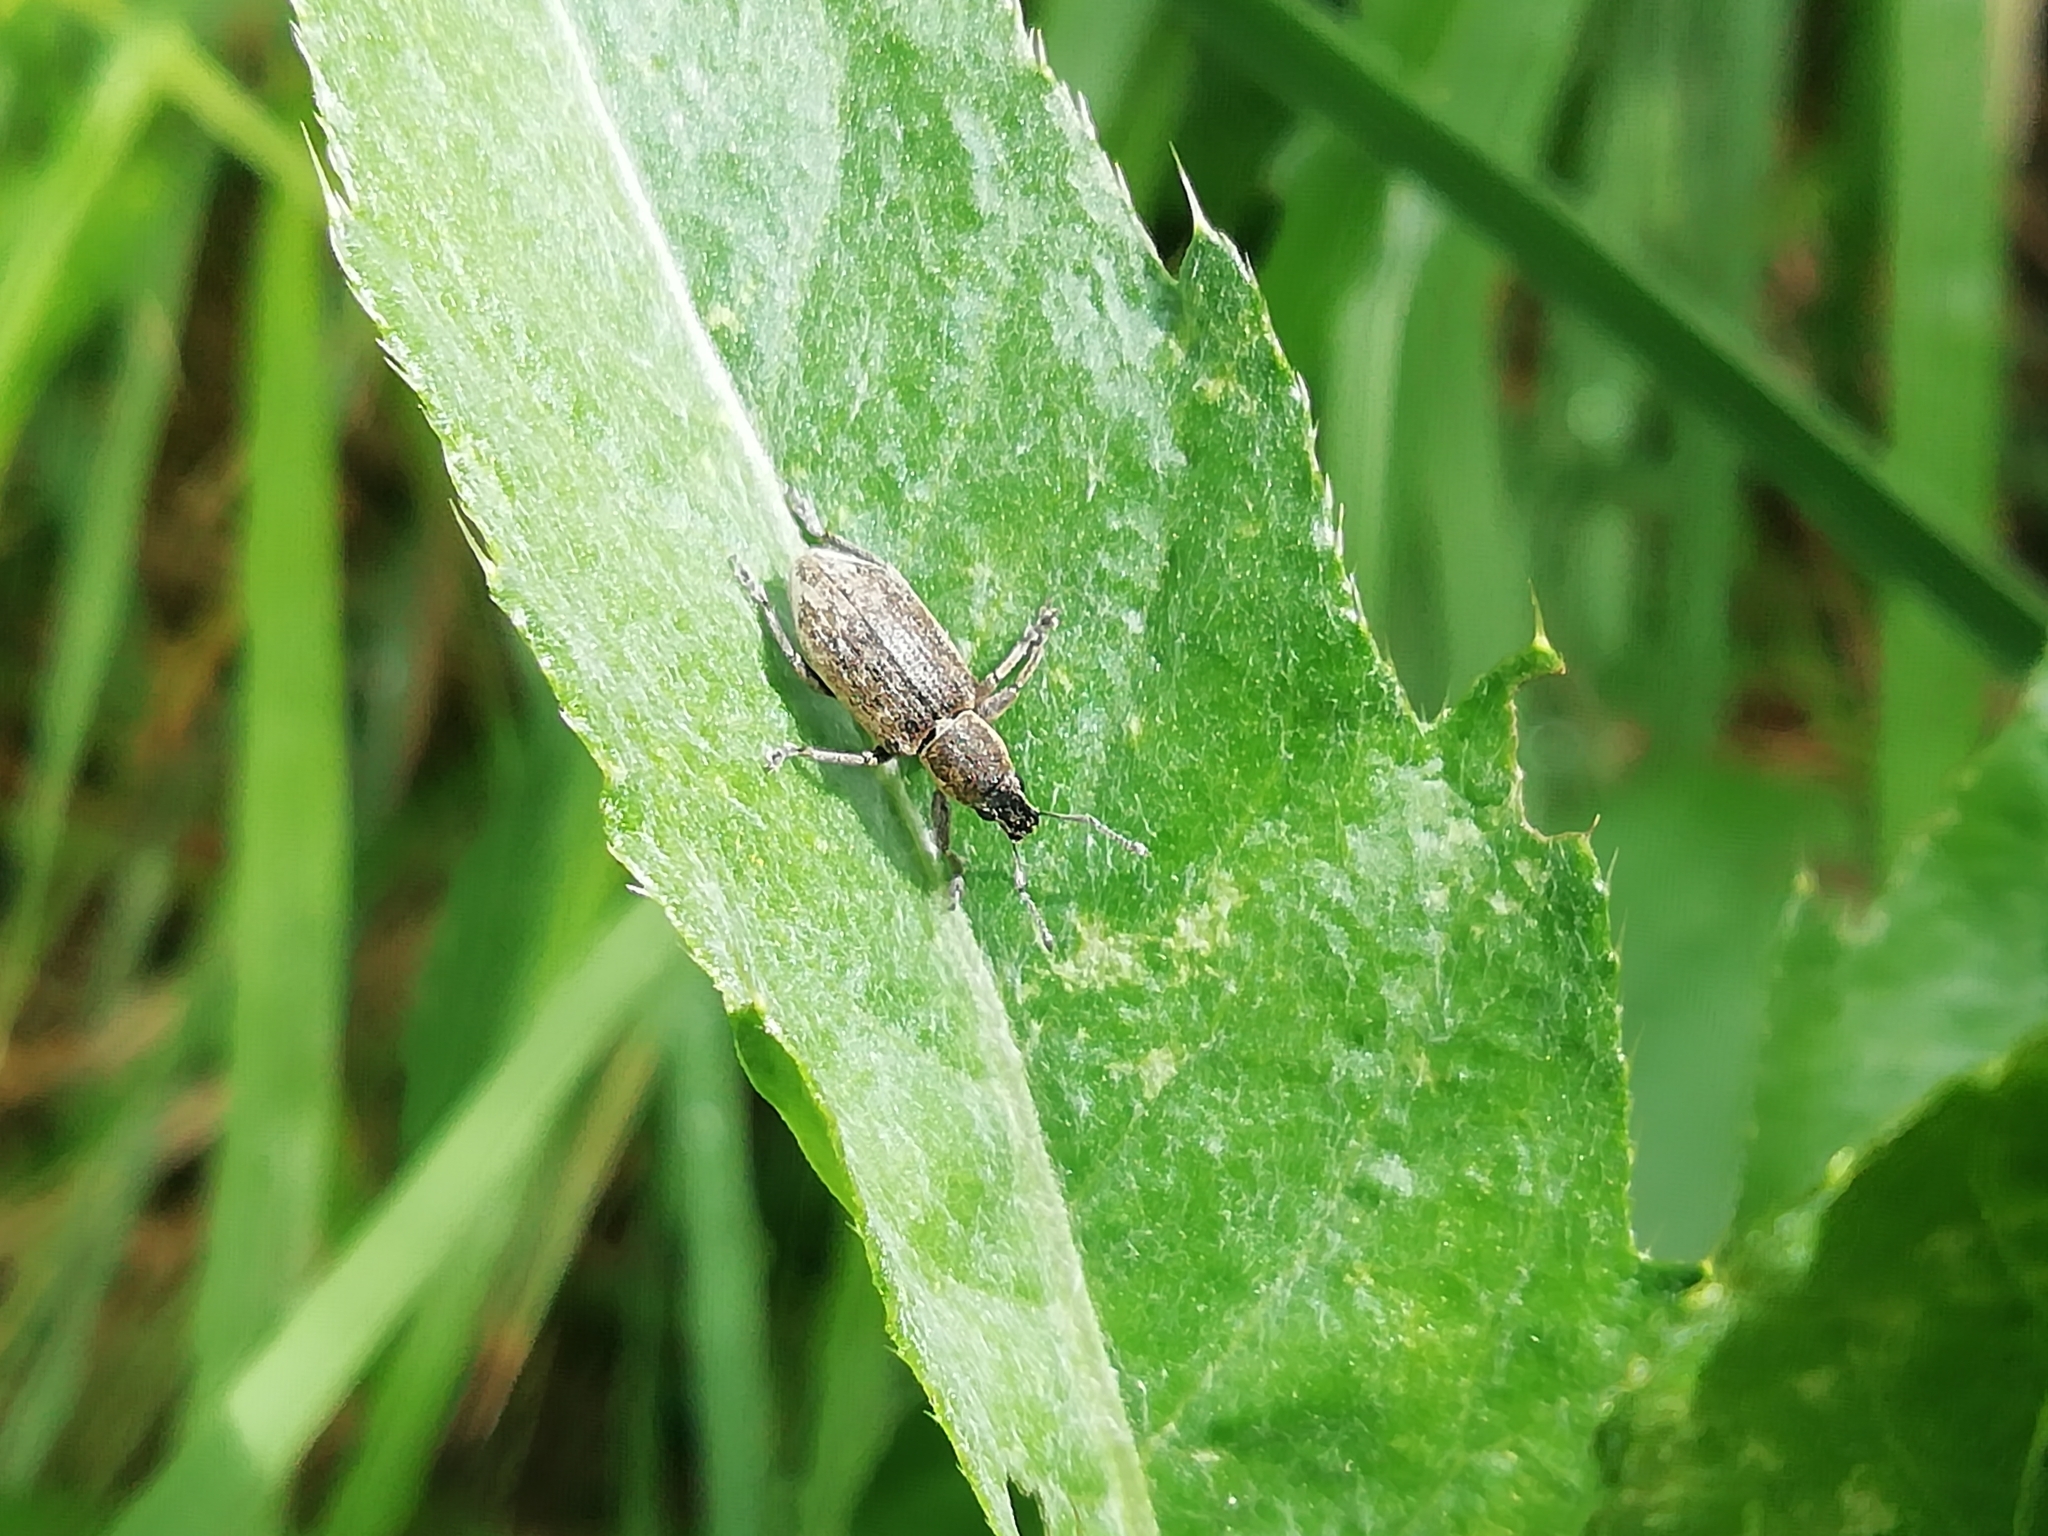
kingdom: Animalia
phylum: Arthropoda
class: Insecta
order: Coleoptera
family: Curculionidae
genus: Tanymecus
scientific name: Tanymecus palliatus
